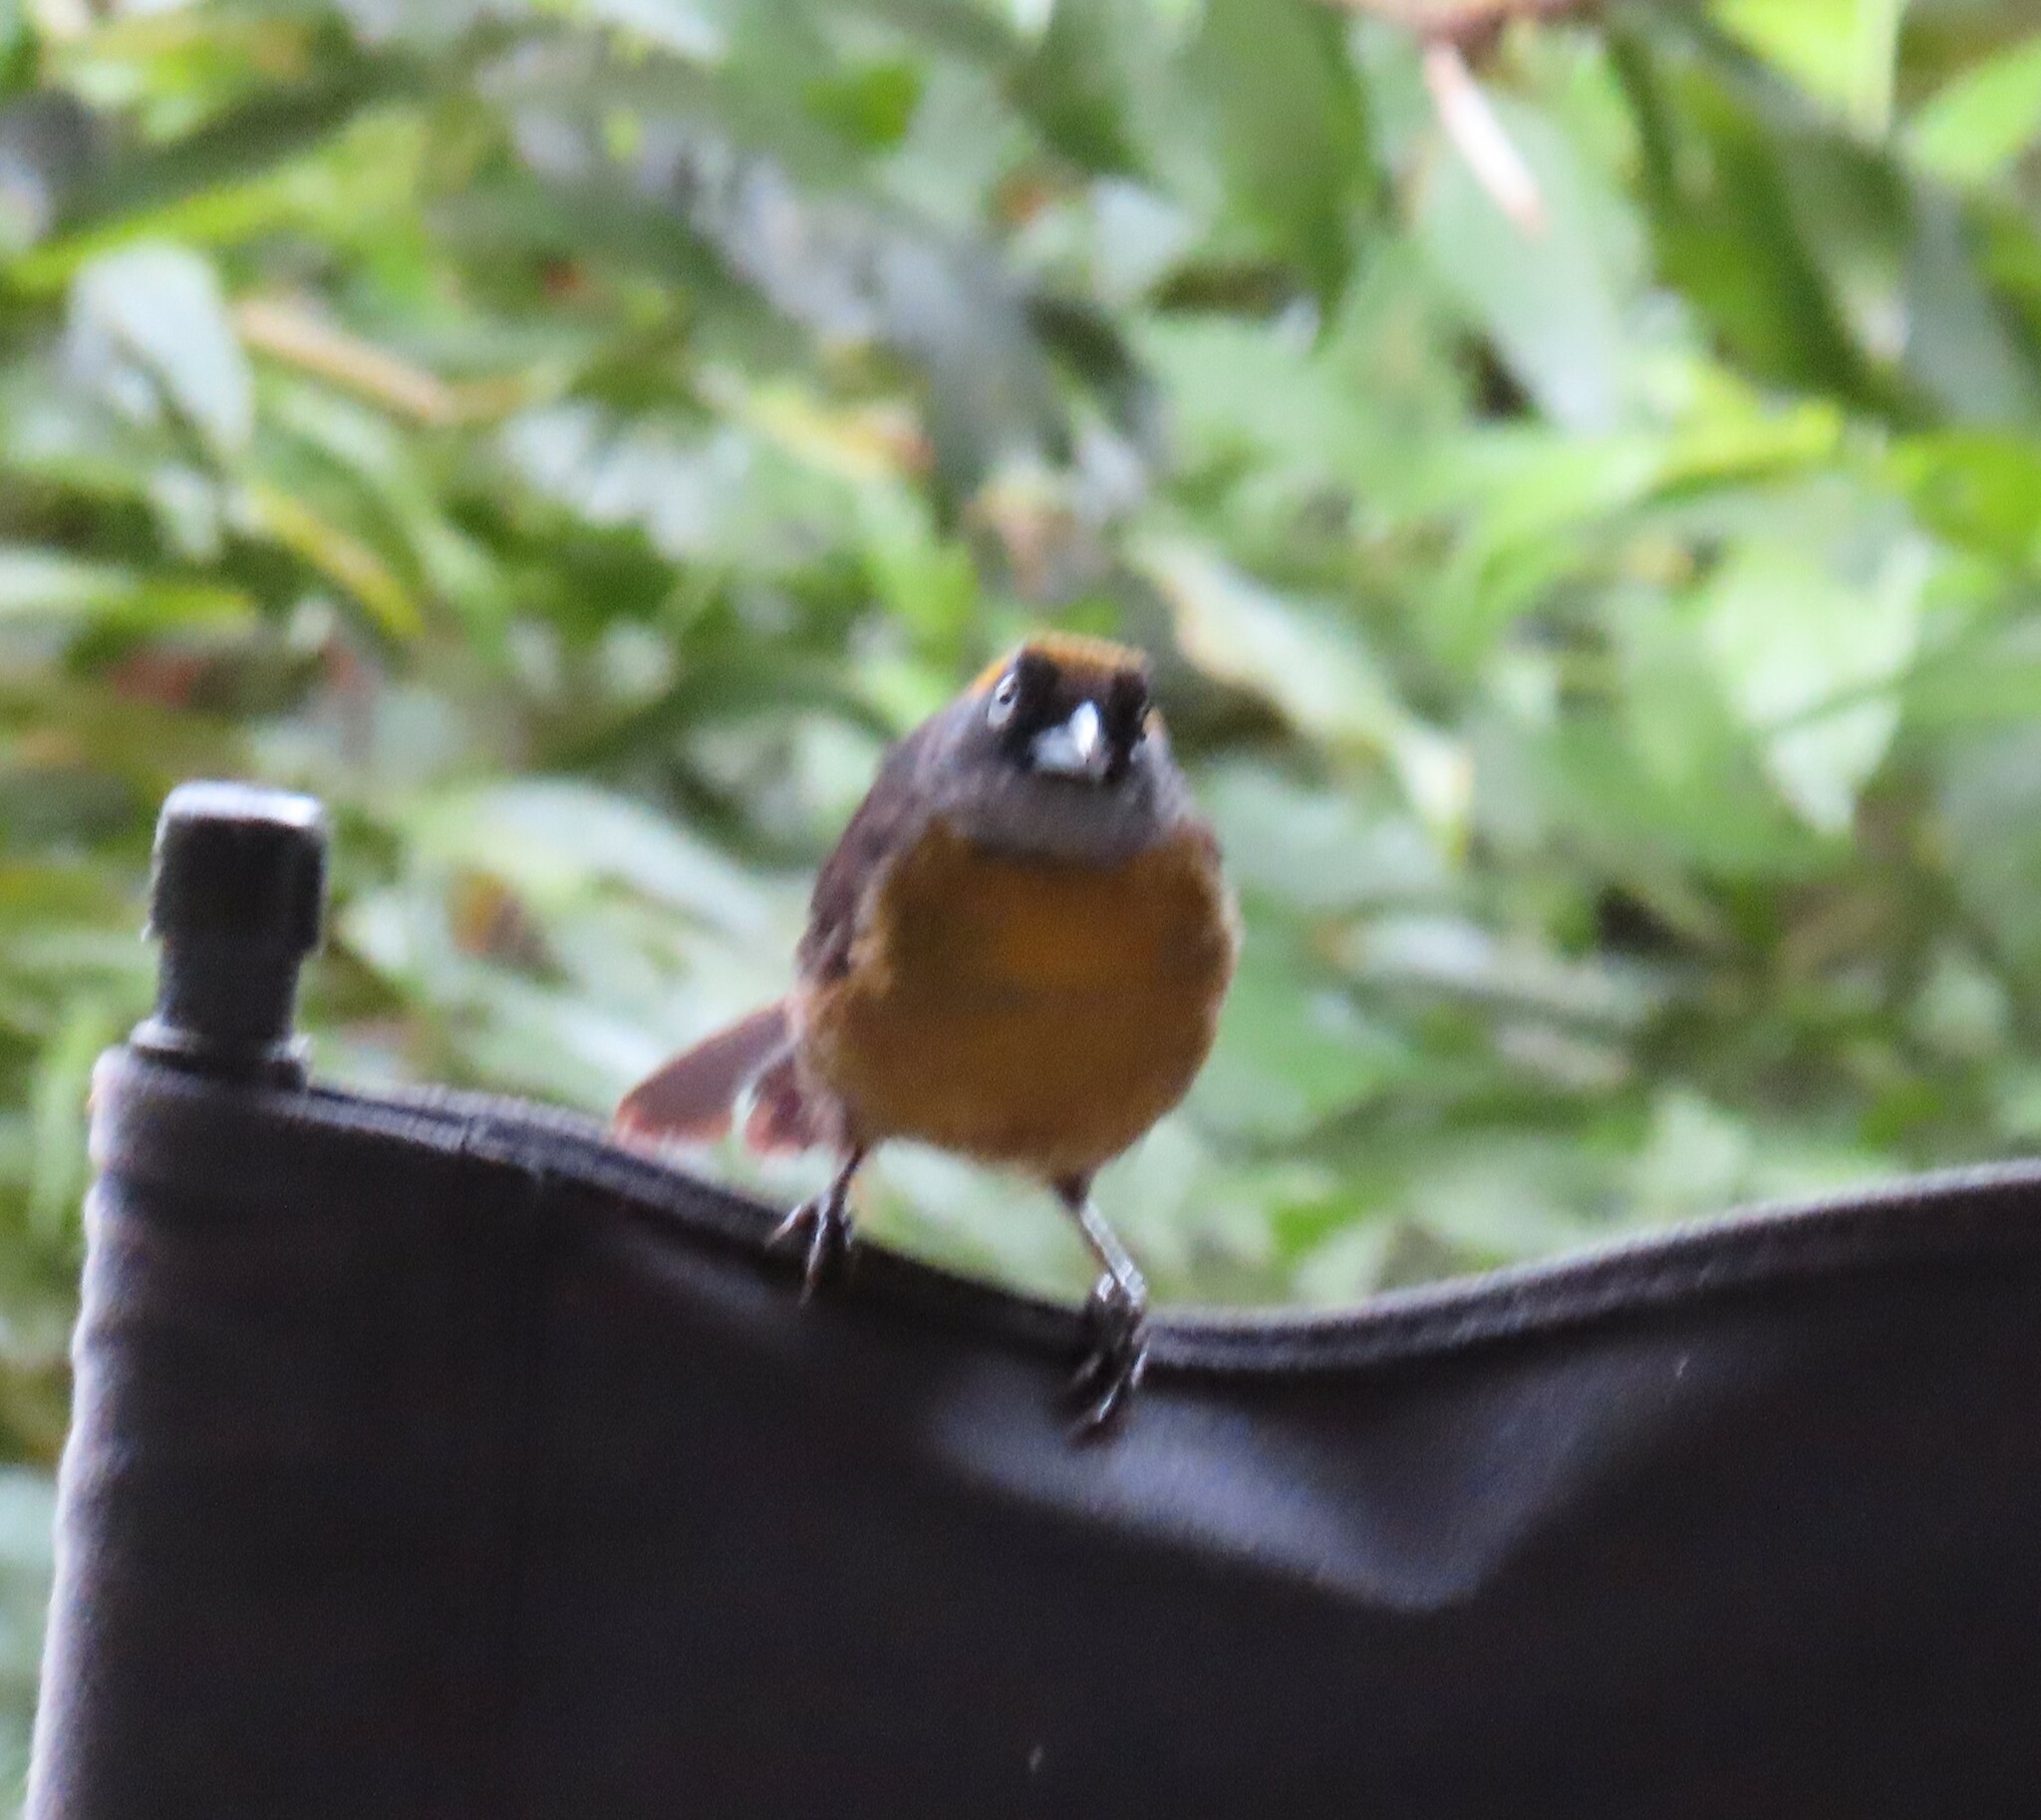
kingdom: Animalia
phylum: Chordata
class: Aves
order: Passeriformes
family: Mitrospingidae
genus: Mitrospingus
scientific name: Mitrospingus cassinii
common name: Dusky-faced tanager
